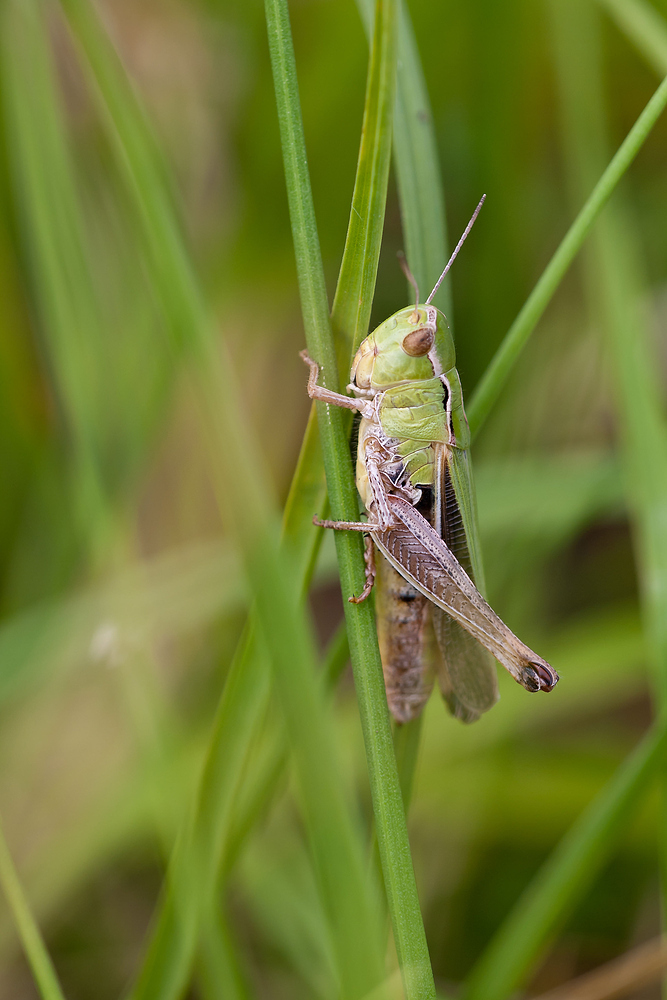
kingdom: Animalia
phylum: Arthropoda
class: Insecta
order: Orthoptera
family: Acrididae
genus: Stenobothrus
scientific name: Stenobothrus lineatus
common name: Stripe-winged grasshopper
